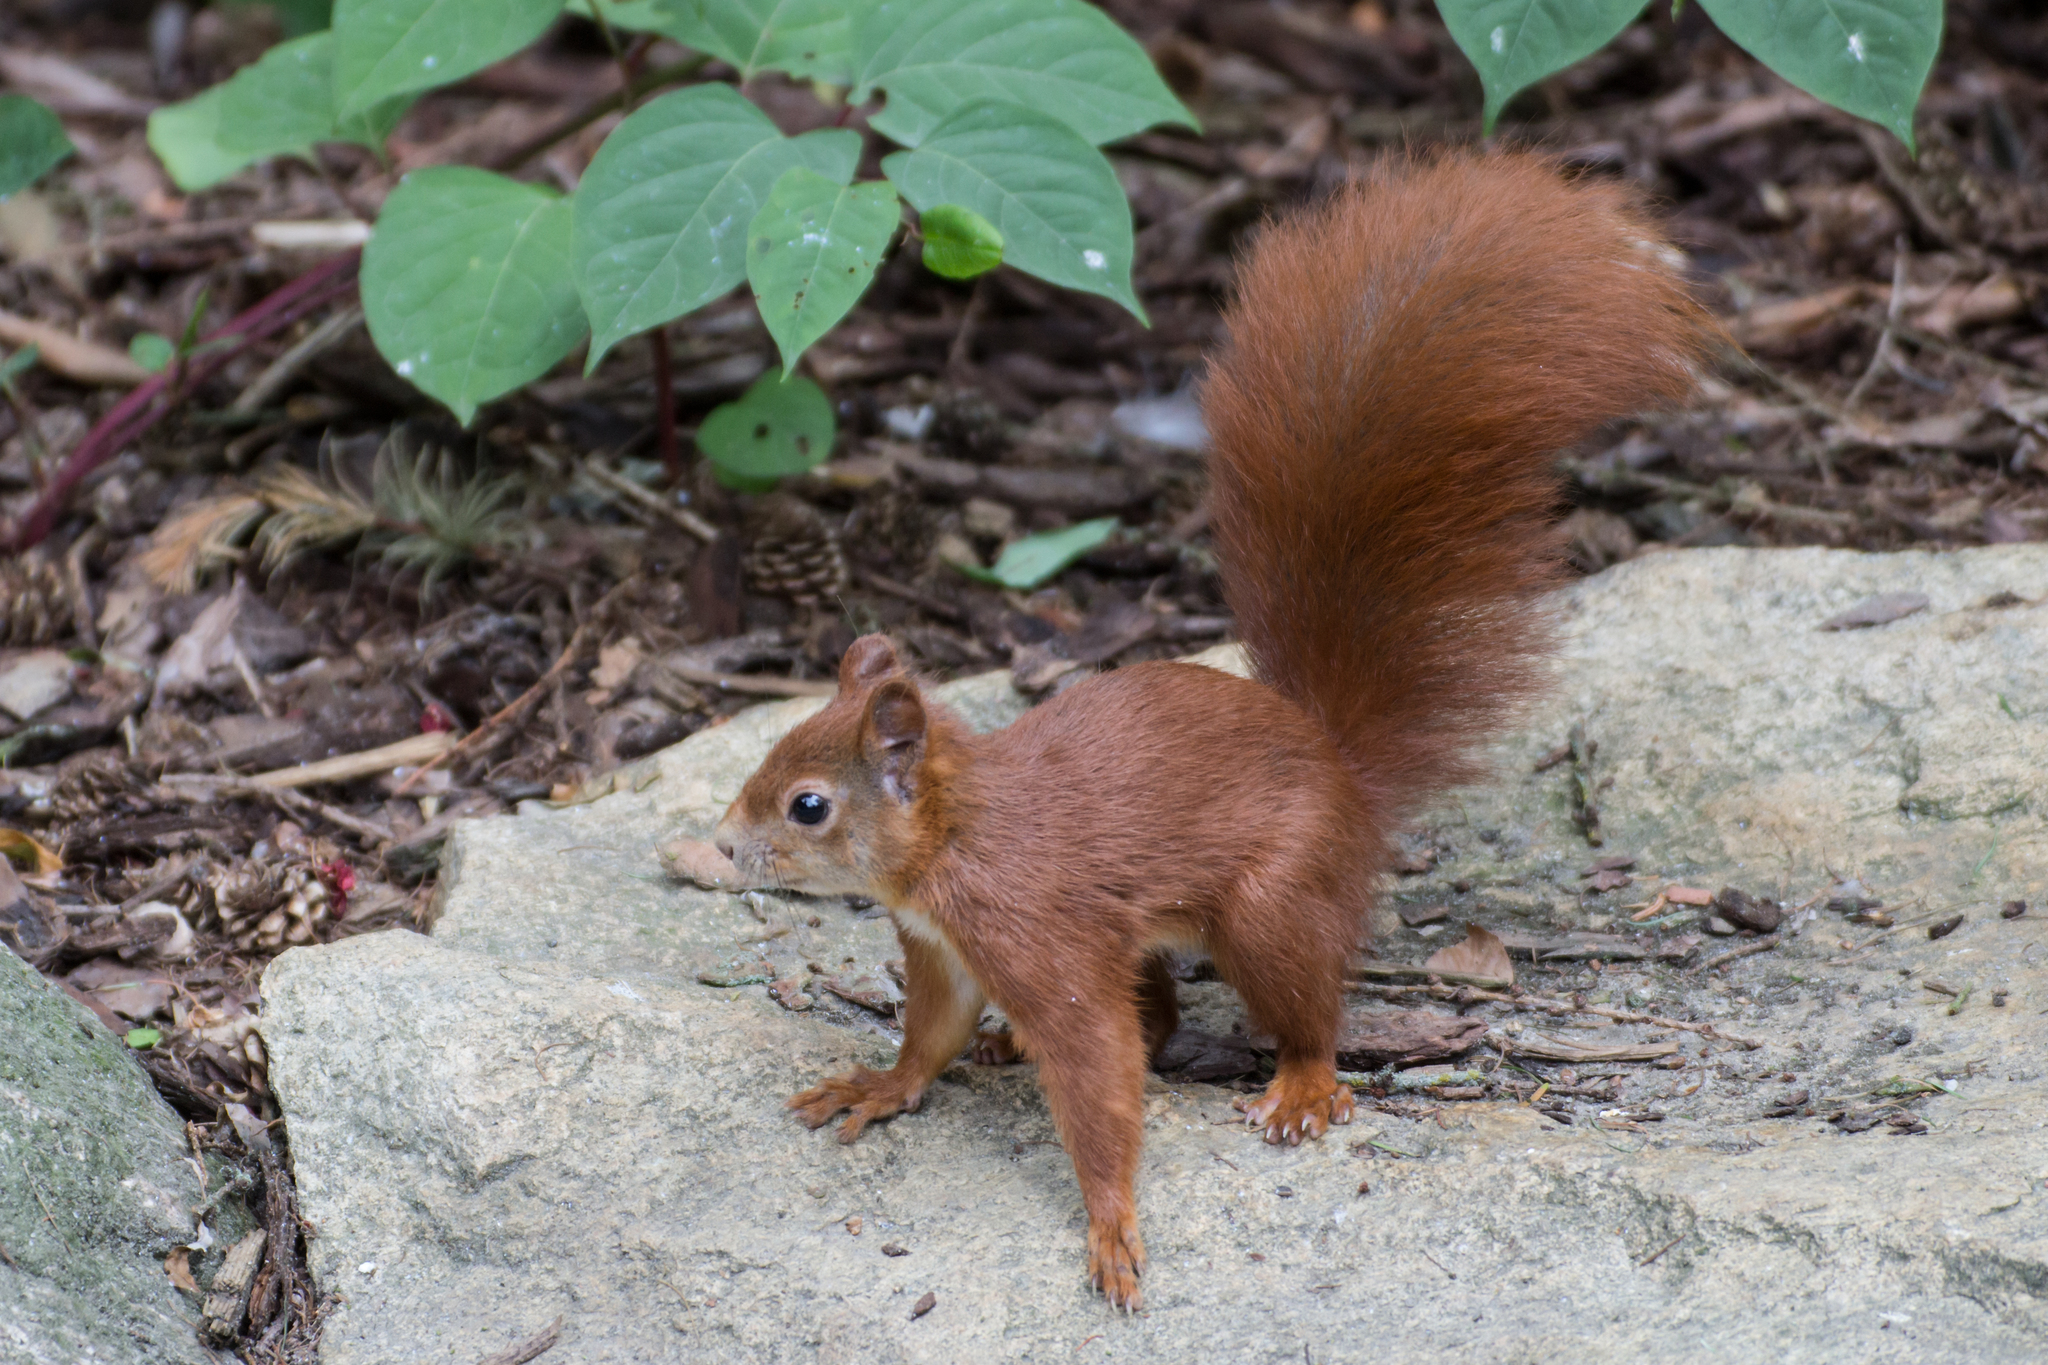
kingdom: Animalia
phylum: Chordata
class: Mammalia
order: Rodentia
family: Sciuridae
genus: Sciurus
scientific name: Sciurus vulgaris
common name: Eurasian red squirrel
